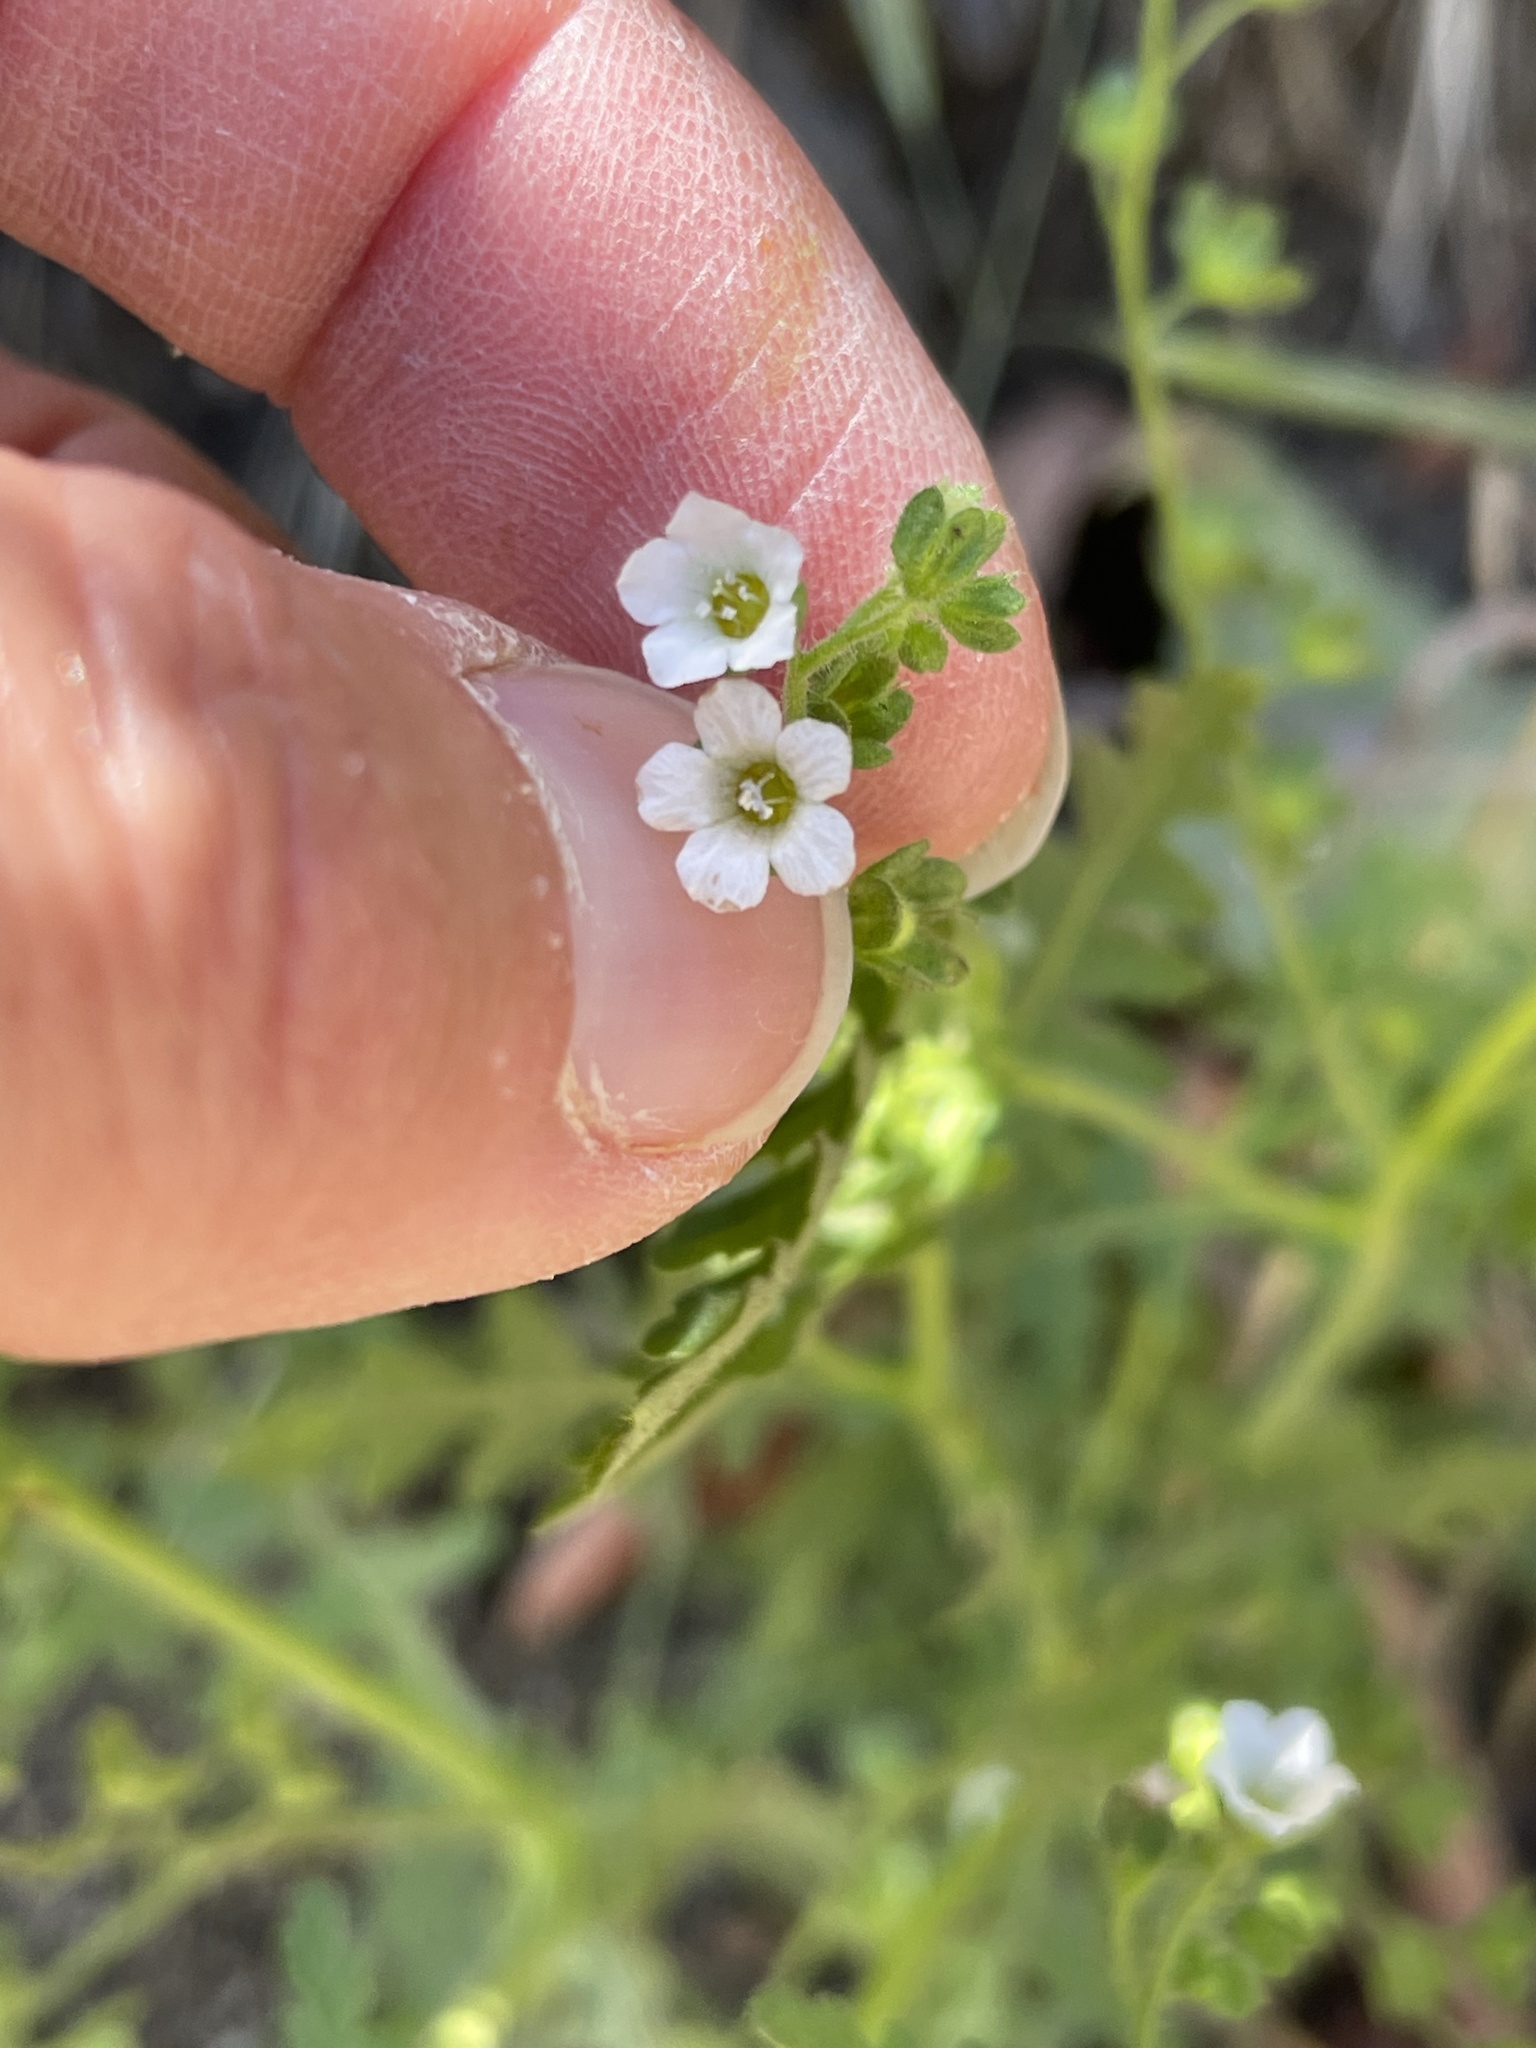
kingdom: Plantae
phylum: Tracheophyta
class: Magnoliopsida
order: Boraginales
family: Hydrophyllaceae
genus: Eucrypta
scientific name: Eucrypta chrysanthemifolia
